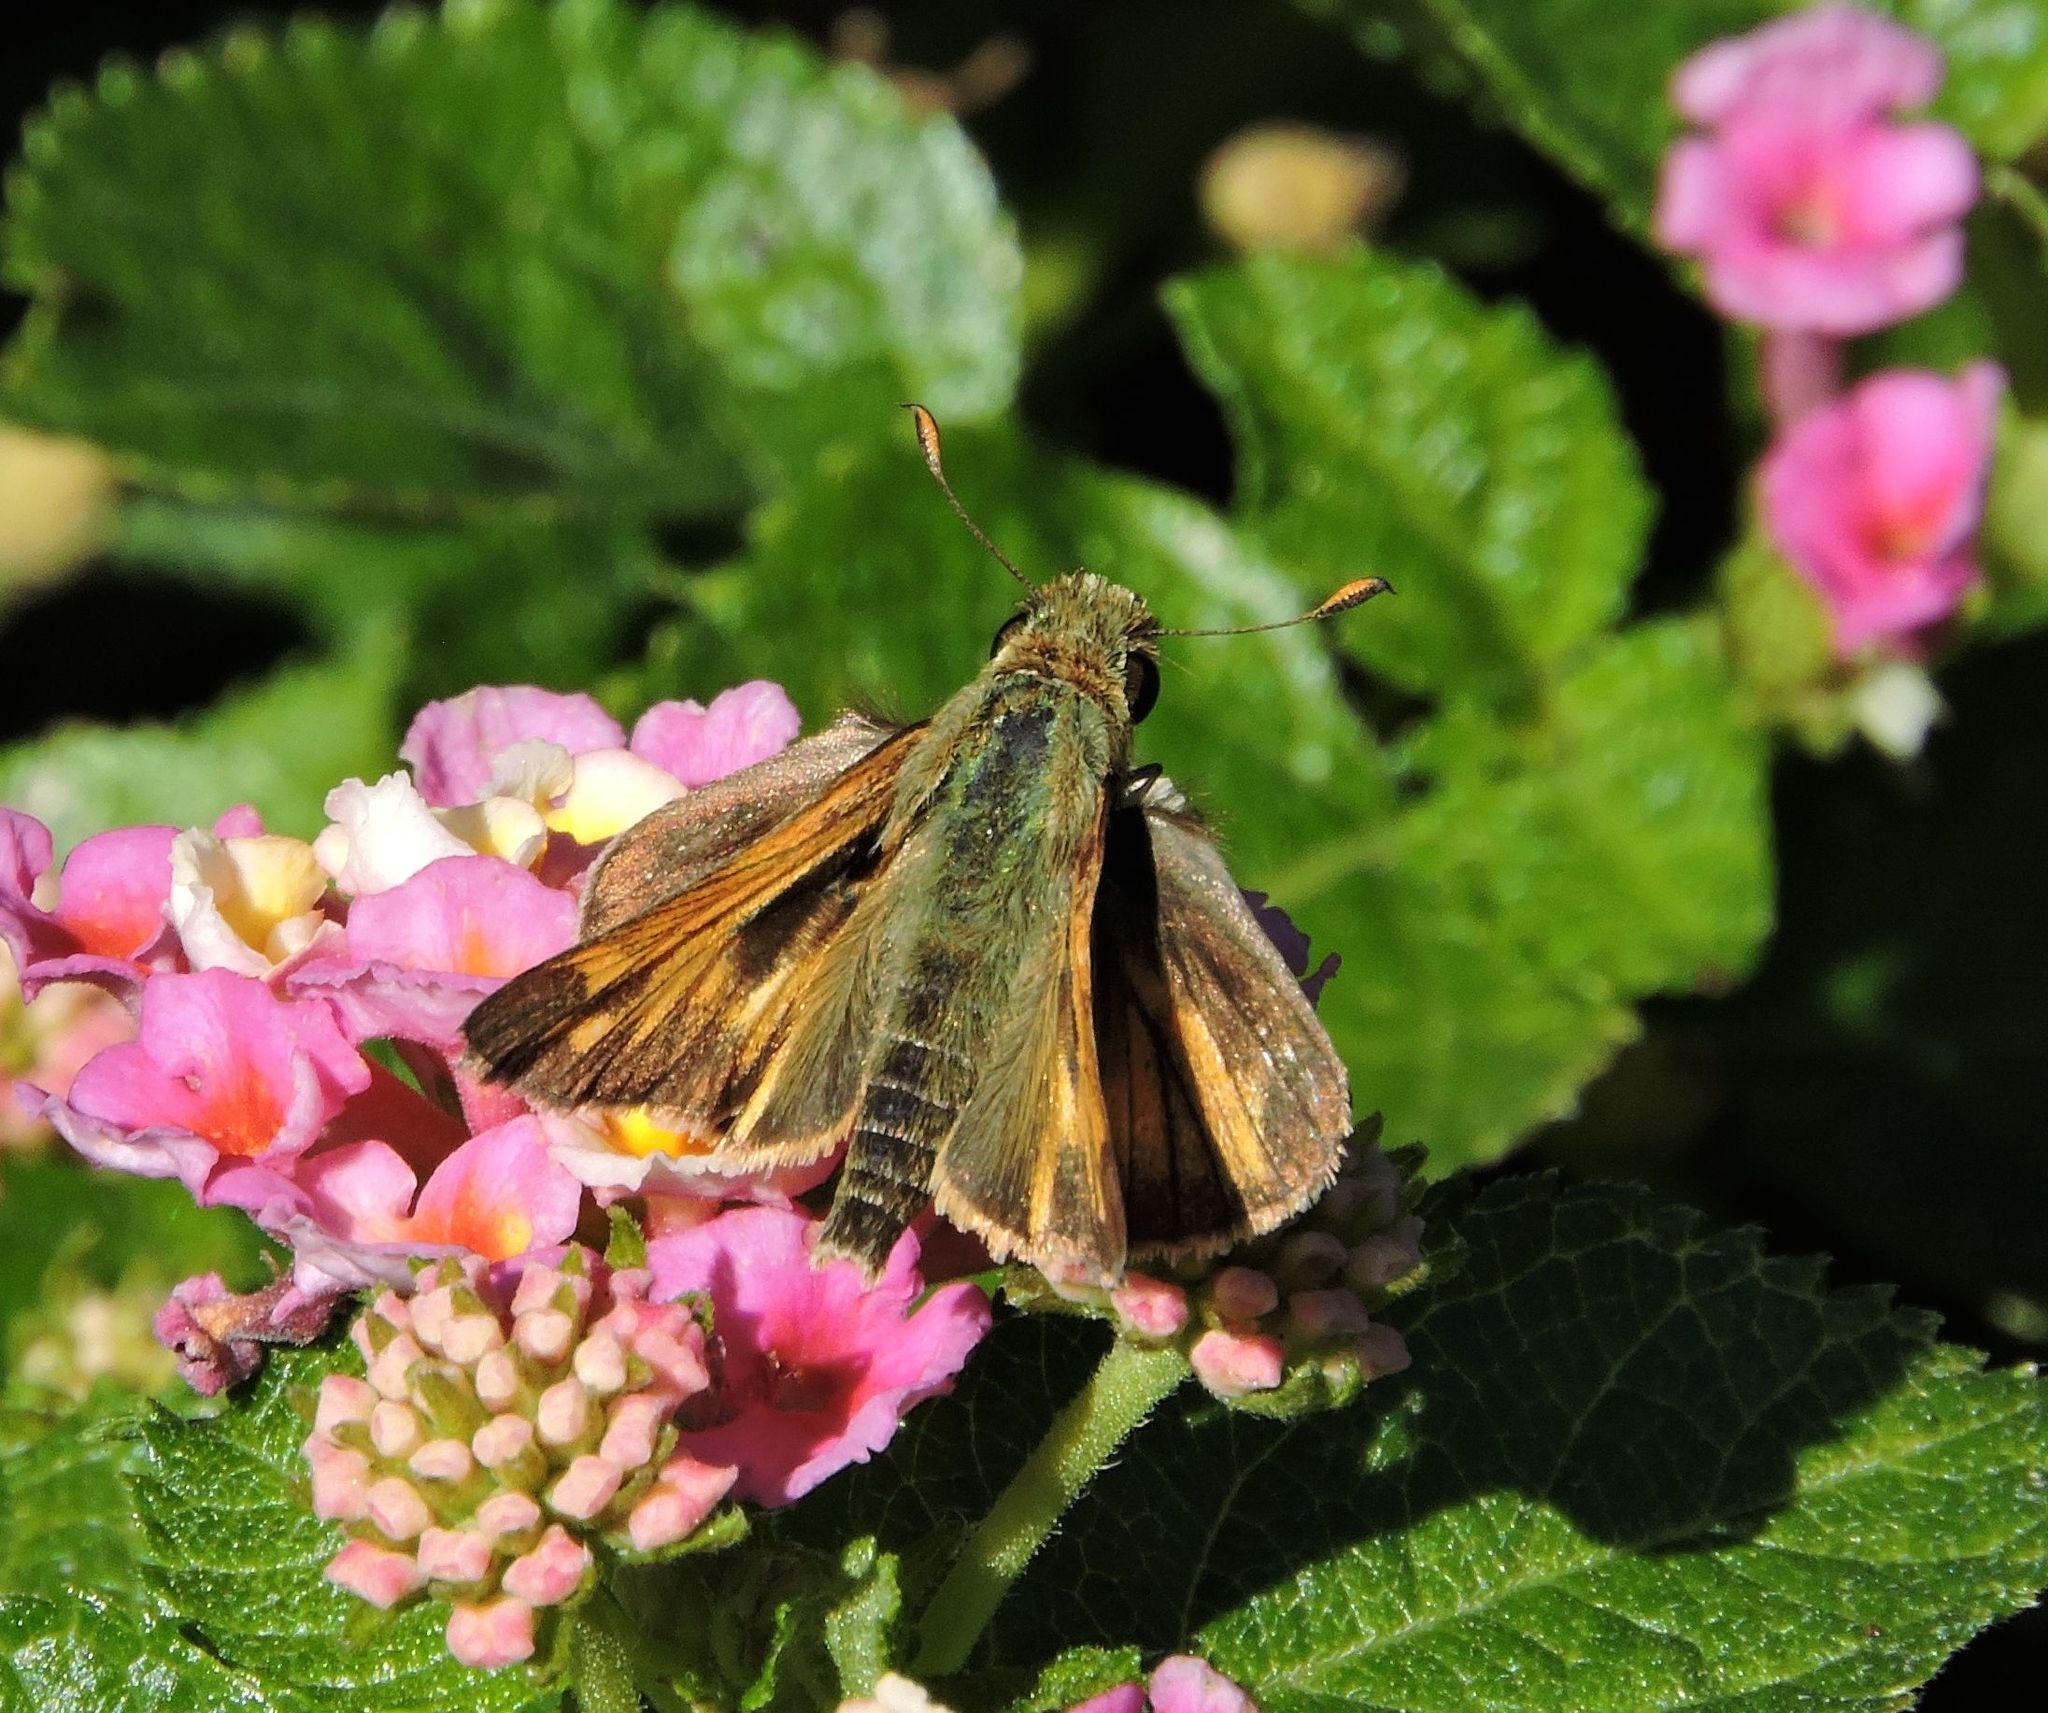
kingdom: Animalia
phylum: Arthropoda
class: Insecta
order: Lepidoptera
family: Hesperiidae
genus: Atalopedes
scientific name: Atalopedes
